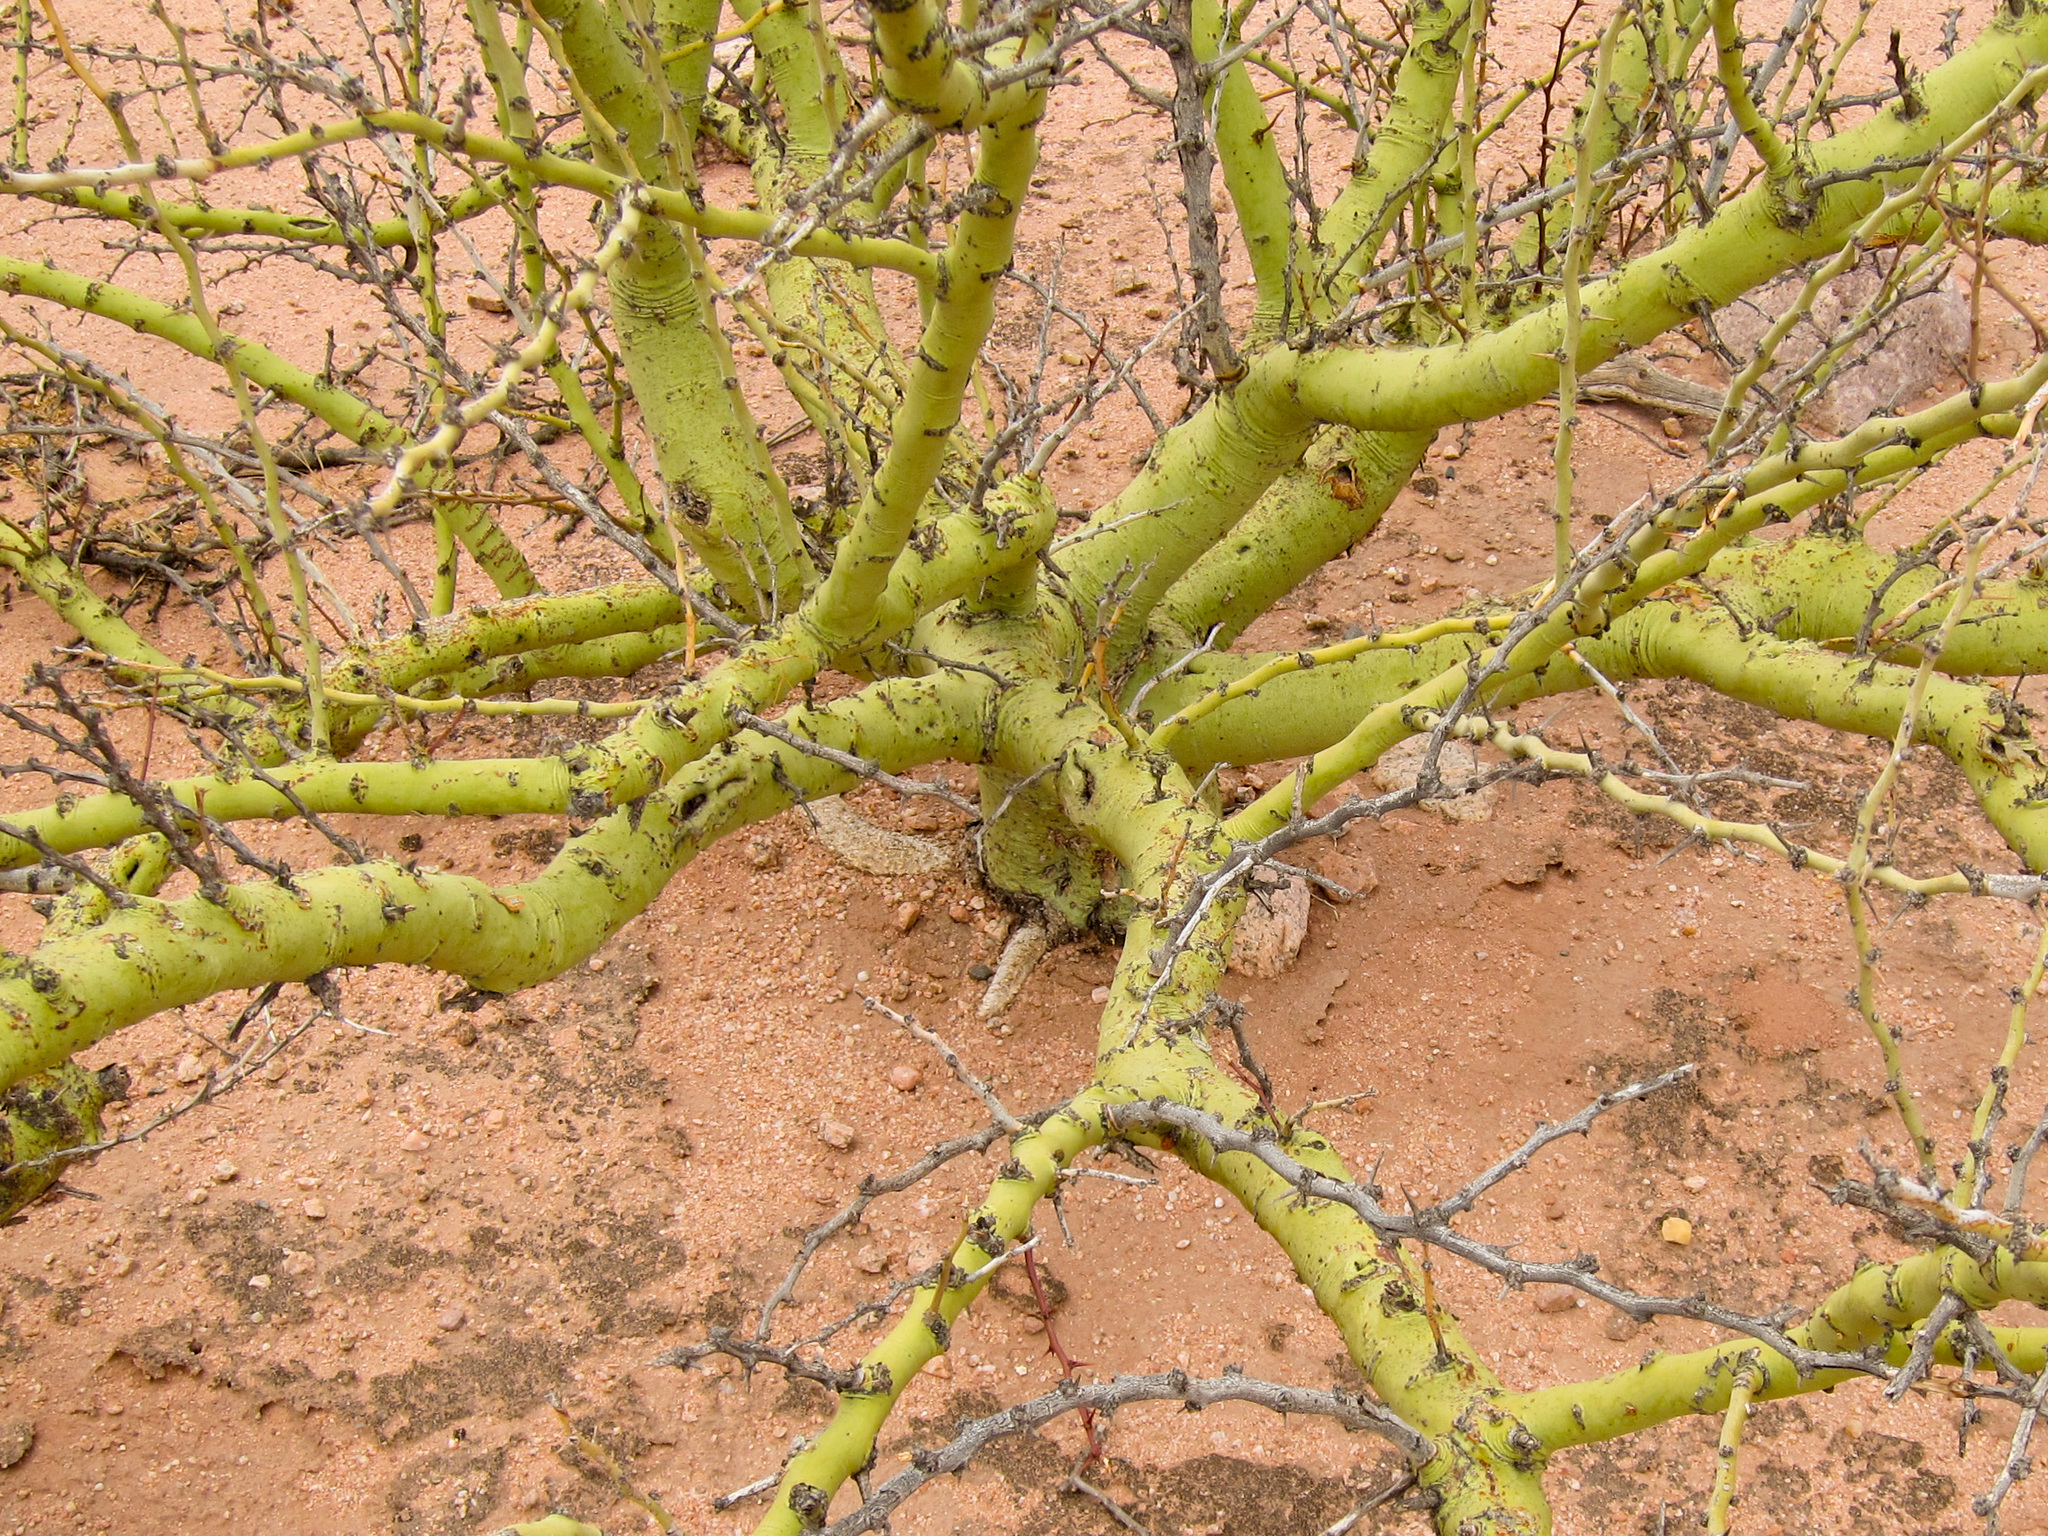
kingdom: Plantae
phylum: Tracheophyta
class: Magnoliopsida
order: Fabales
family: Fabaceae
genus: Parkinsonia
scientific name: Parkinsonia praecox
